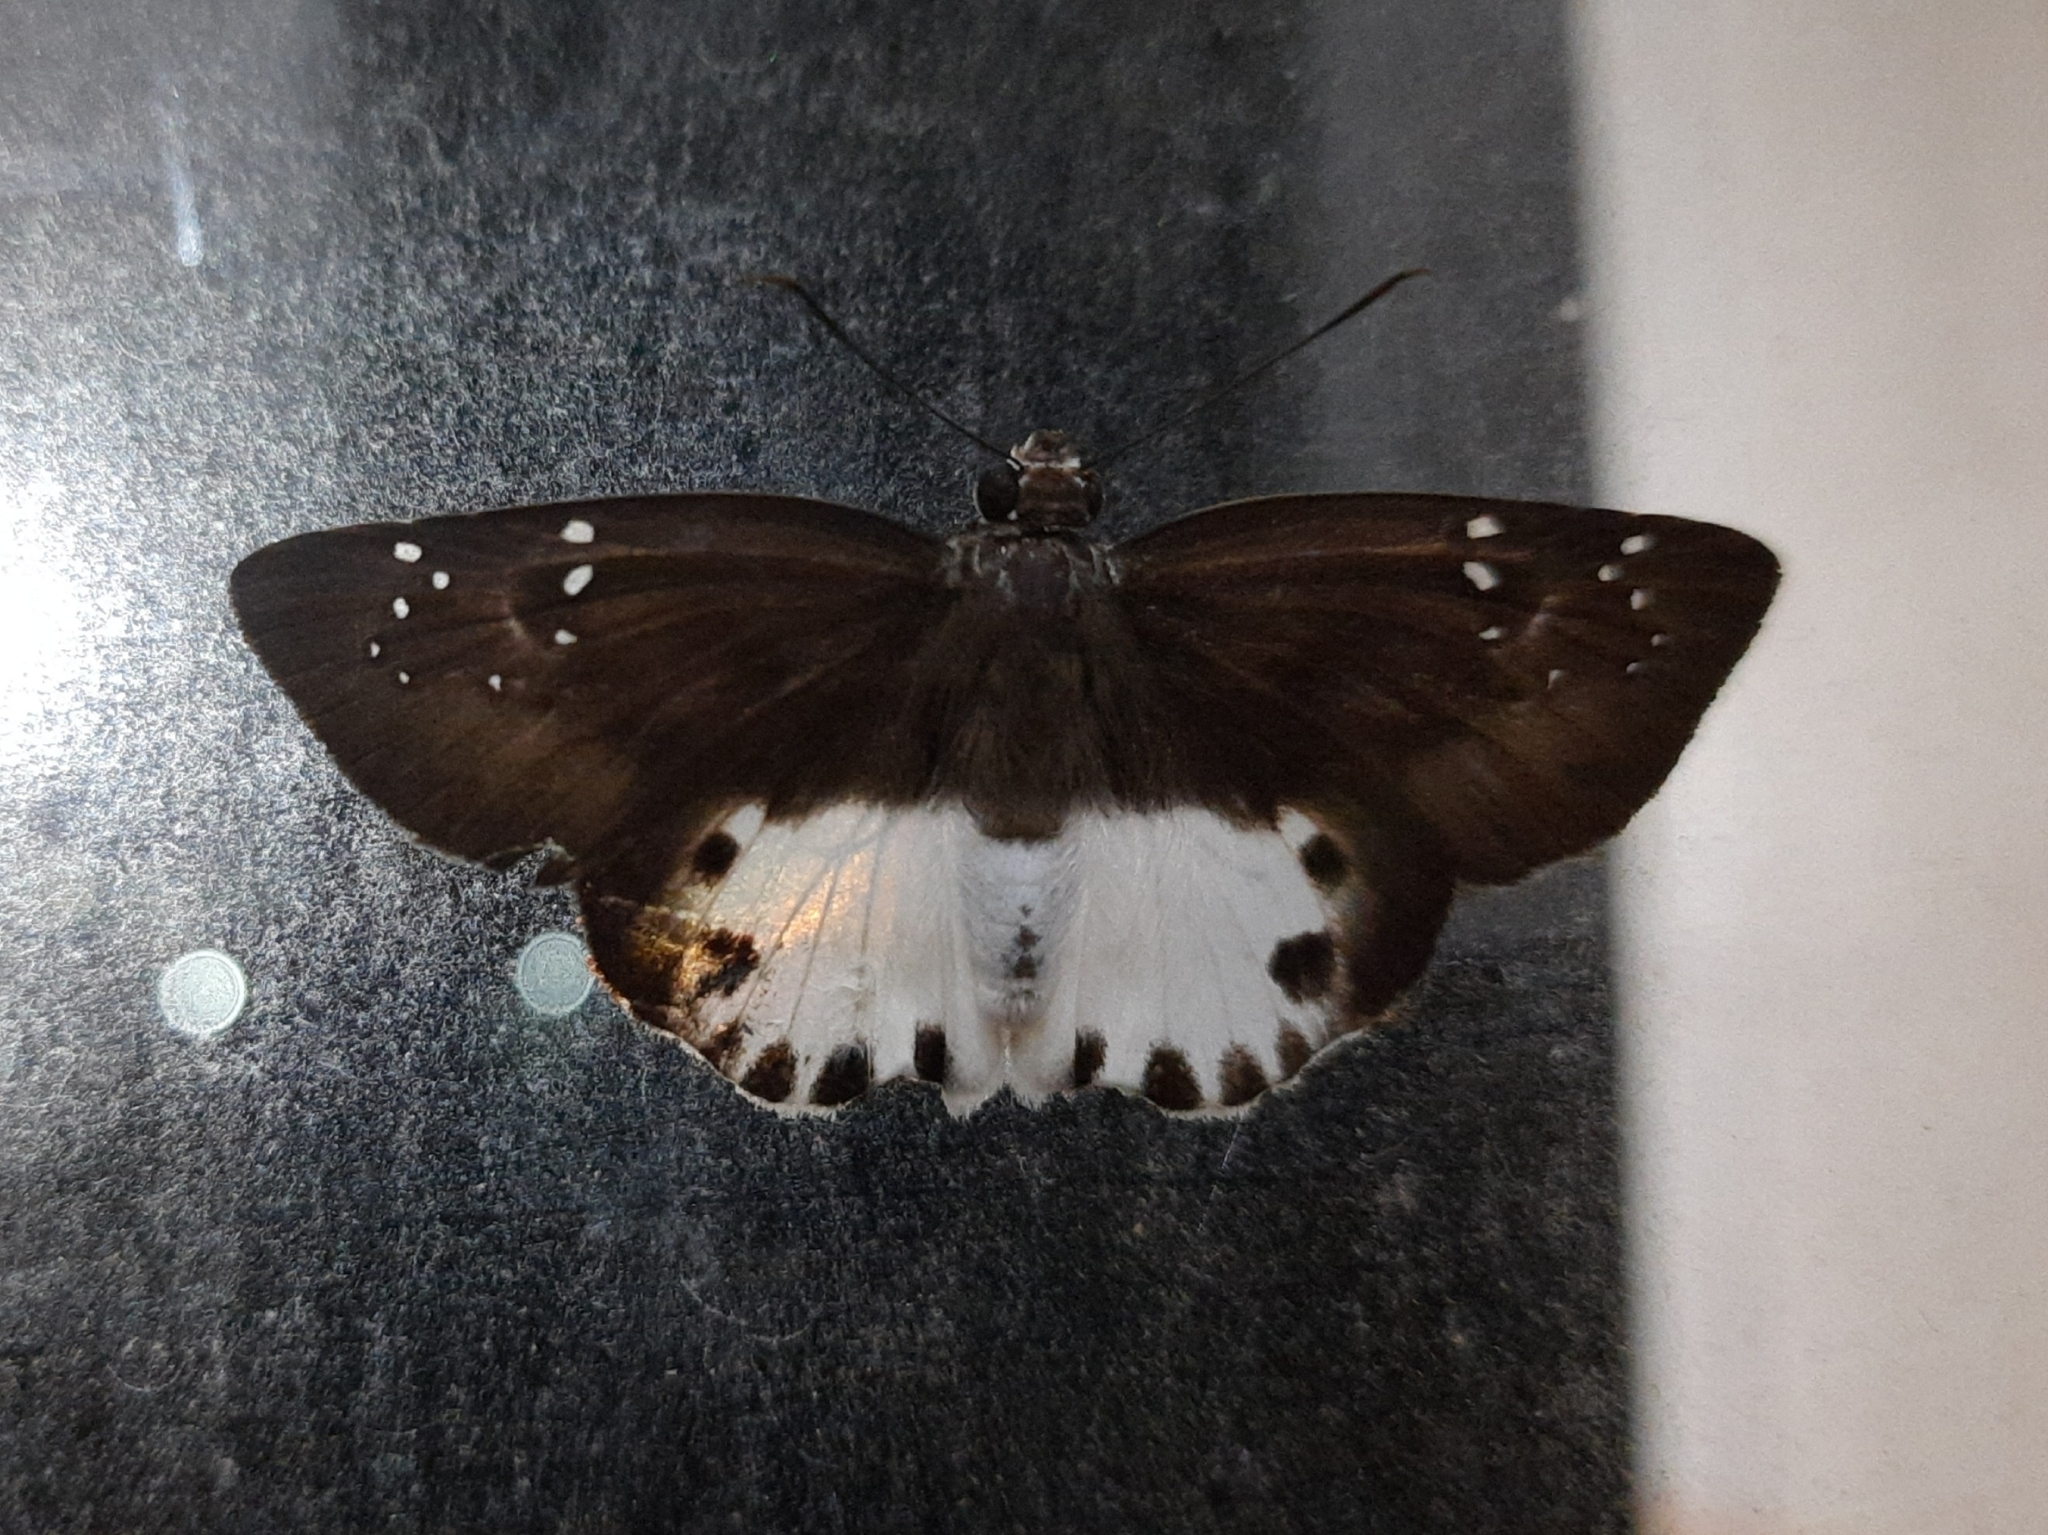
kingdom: Animalia
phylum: Arthropoda
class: Insecta
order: Lepidoptera
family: Hesperiidae
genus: Tagiades
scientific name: Tagiades litigiosa
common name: Water snow flat
